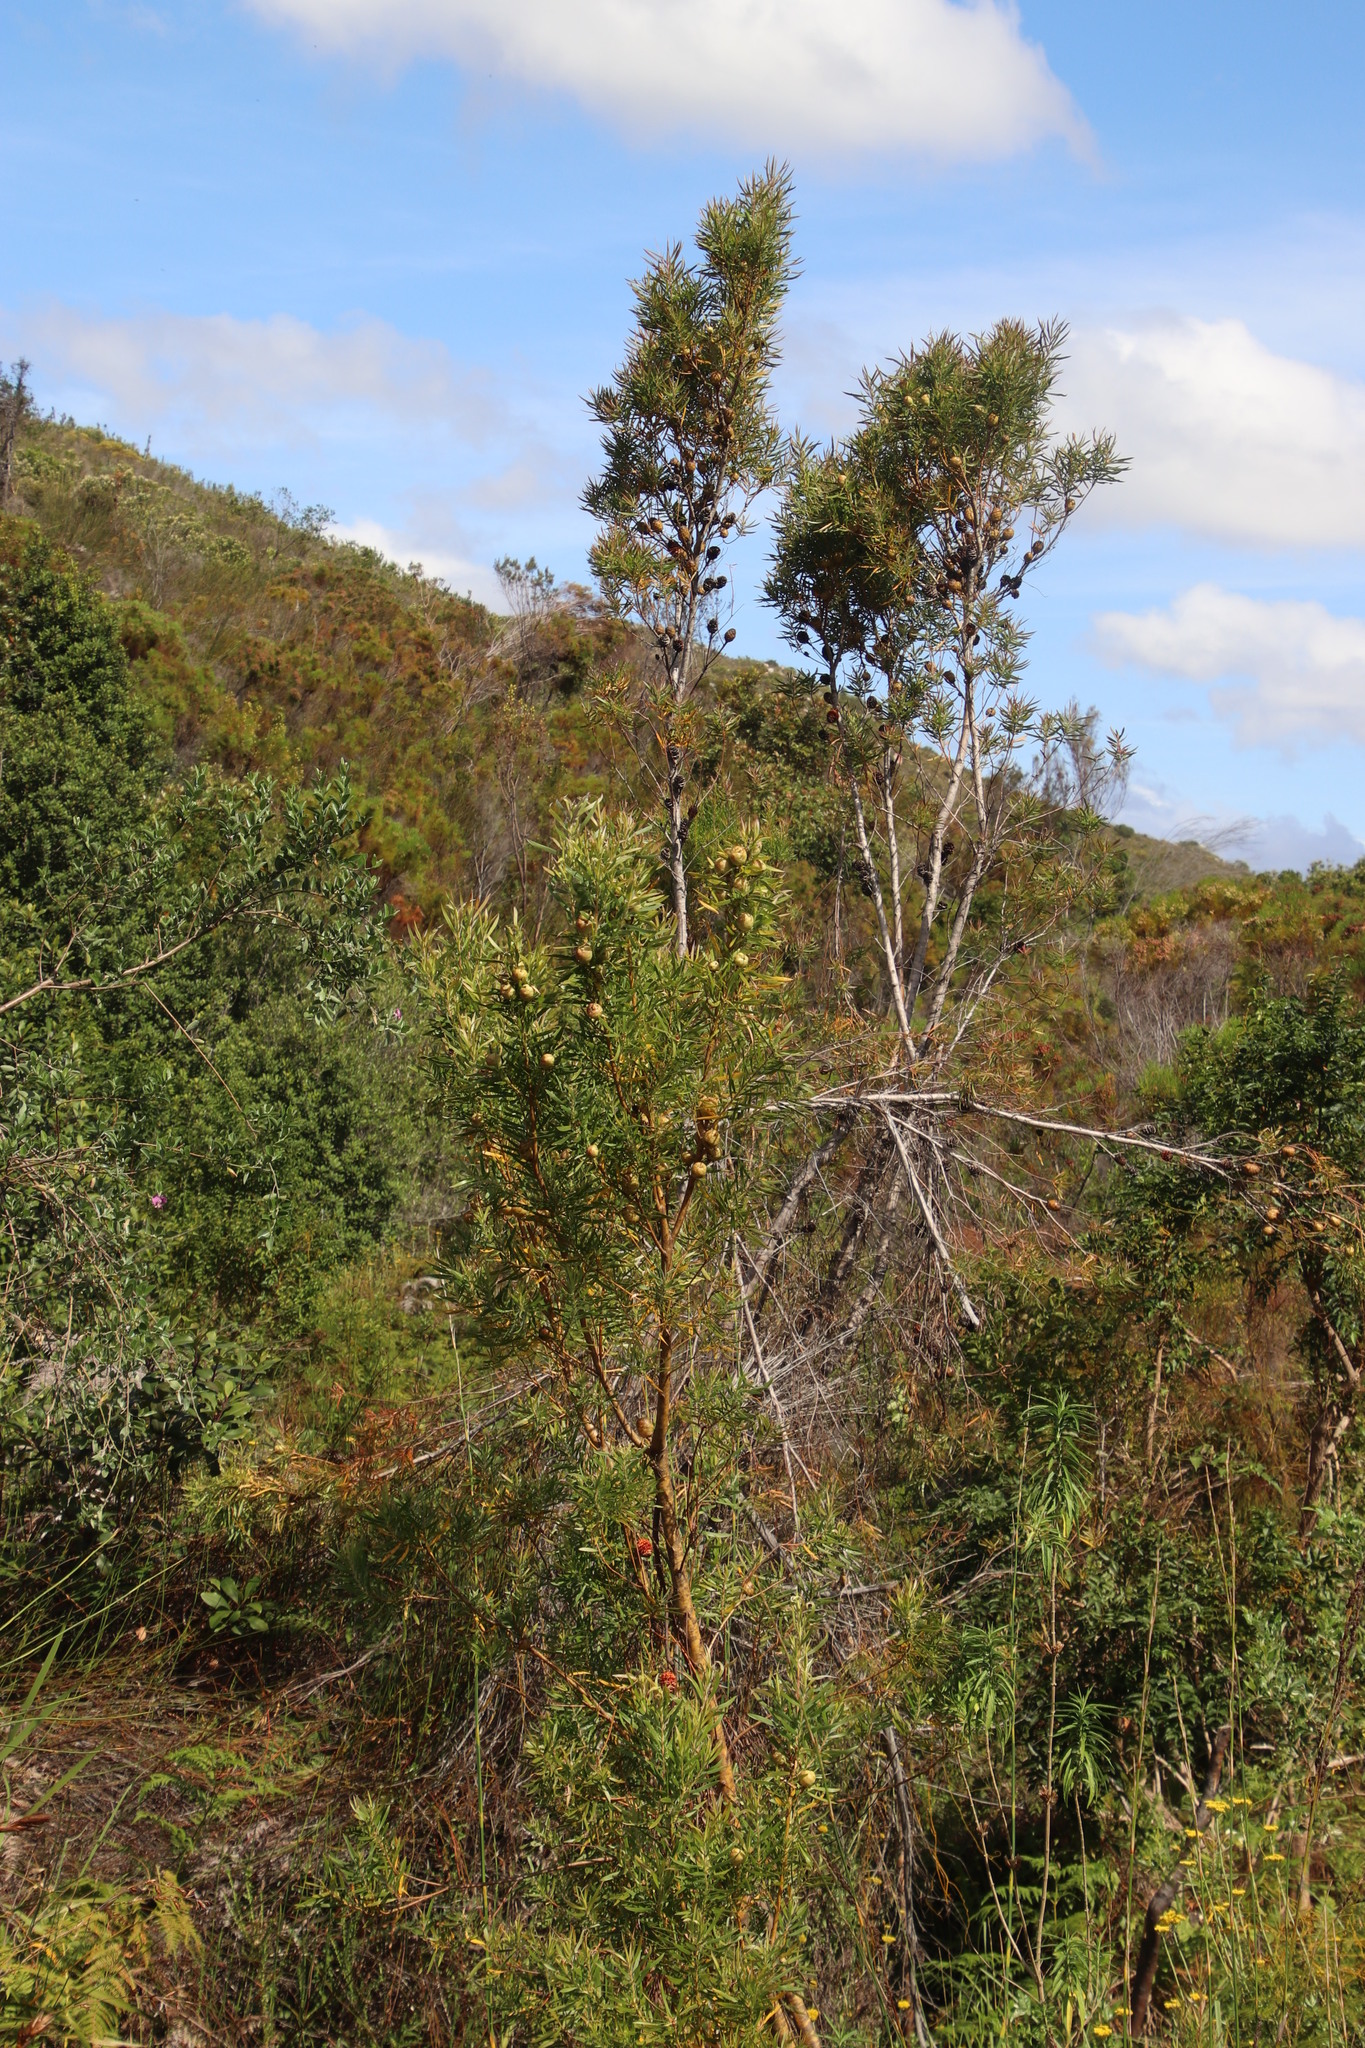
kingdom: Plantae
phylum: Tracheophyta
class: Magnoliopsida
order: Proteales
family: Proteaceae
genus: Leucadendron
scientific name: Leucadendron salicifolium
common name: Common stream conebush
